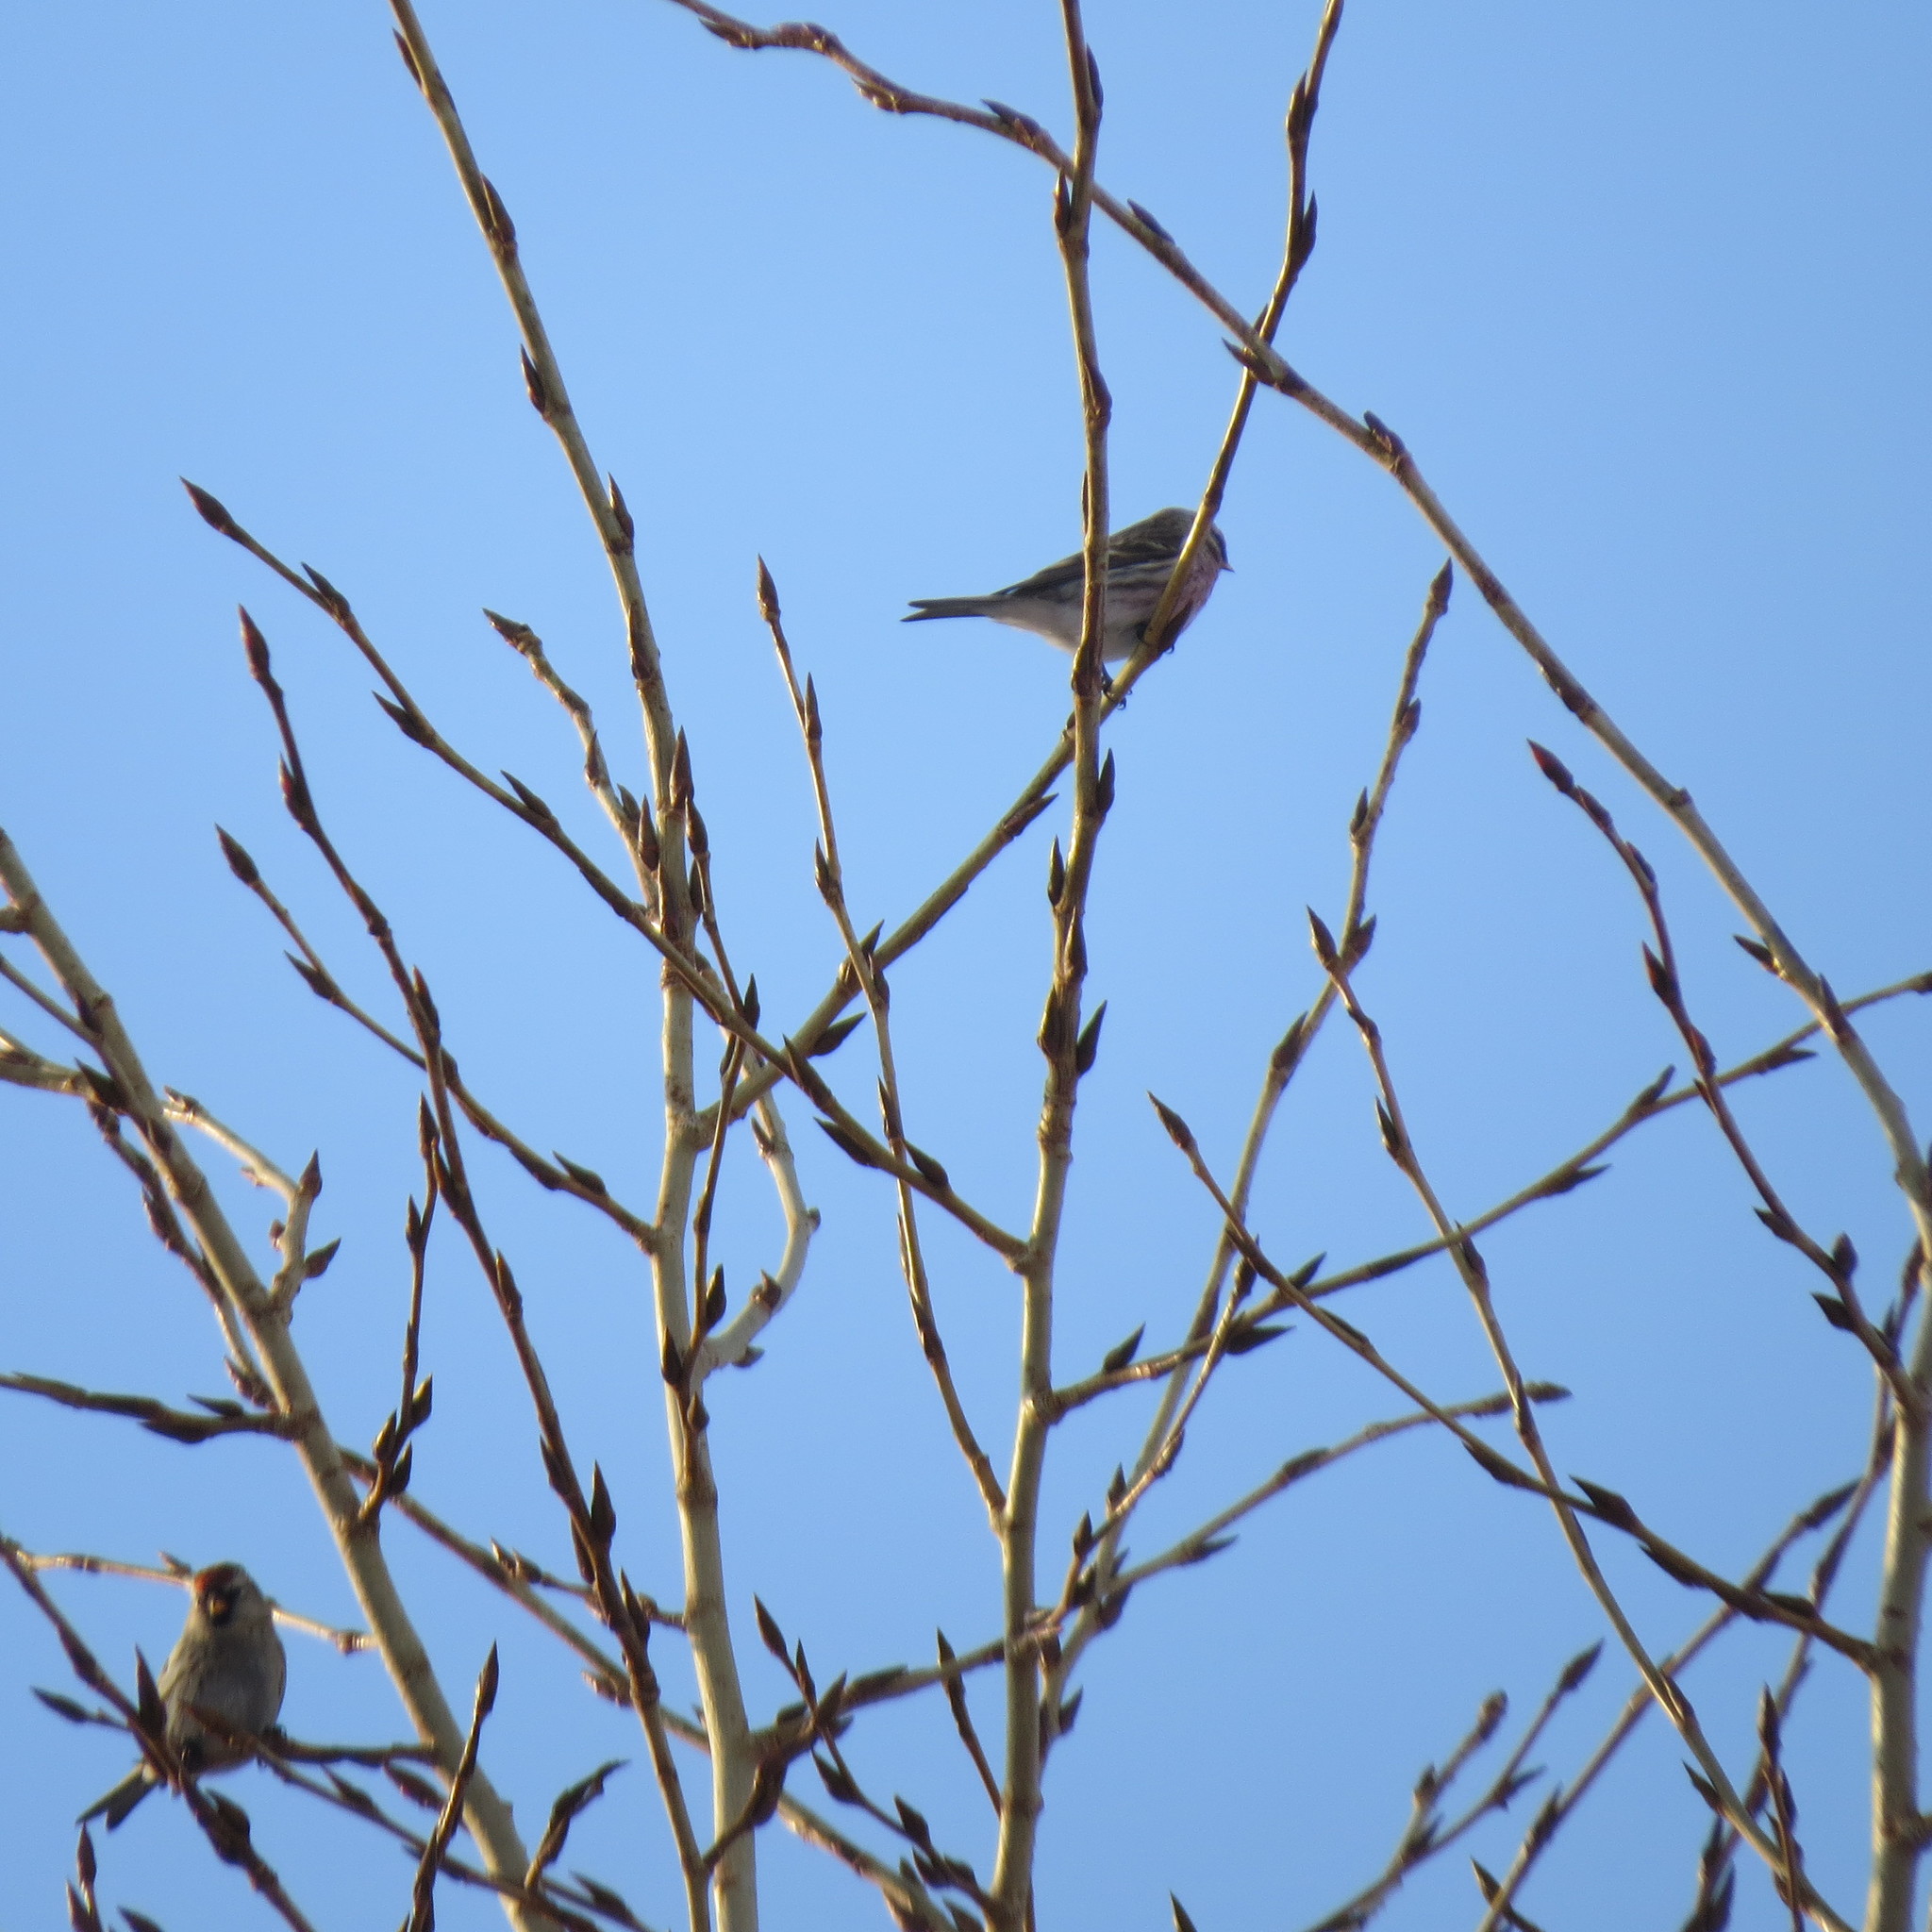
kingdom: Animalia
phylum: Chordata
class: Aves
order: Passeriformes
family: Fringillidae
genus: Acanthis
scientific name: Acanthis flammea
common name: Common redpoll
